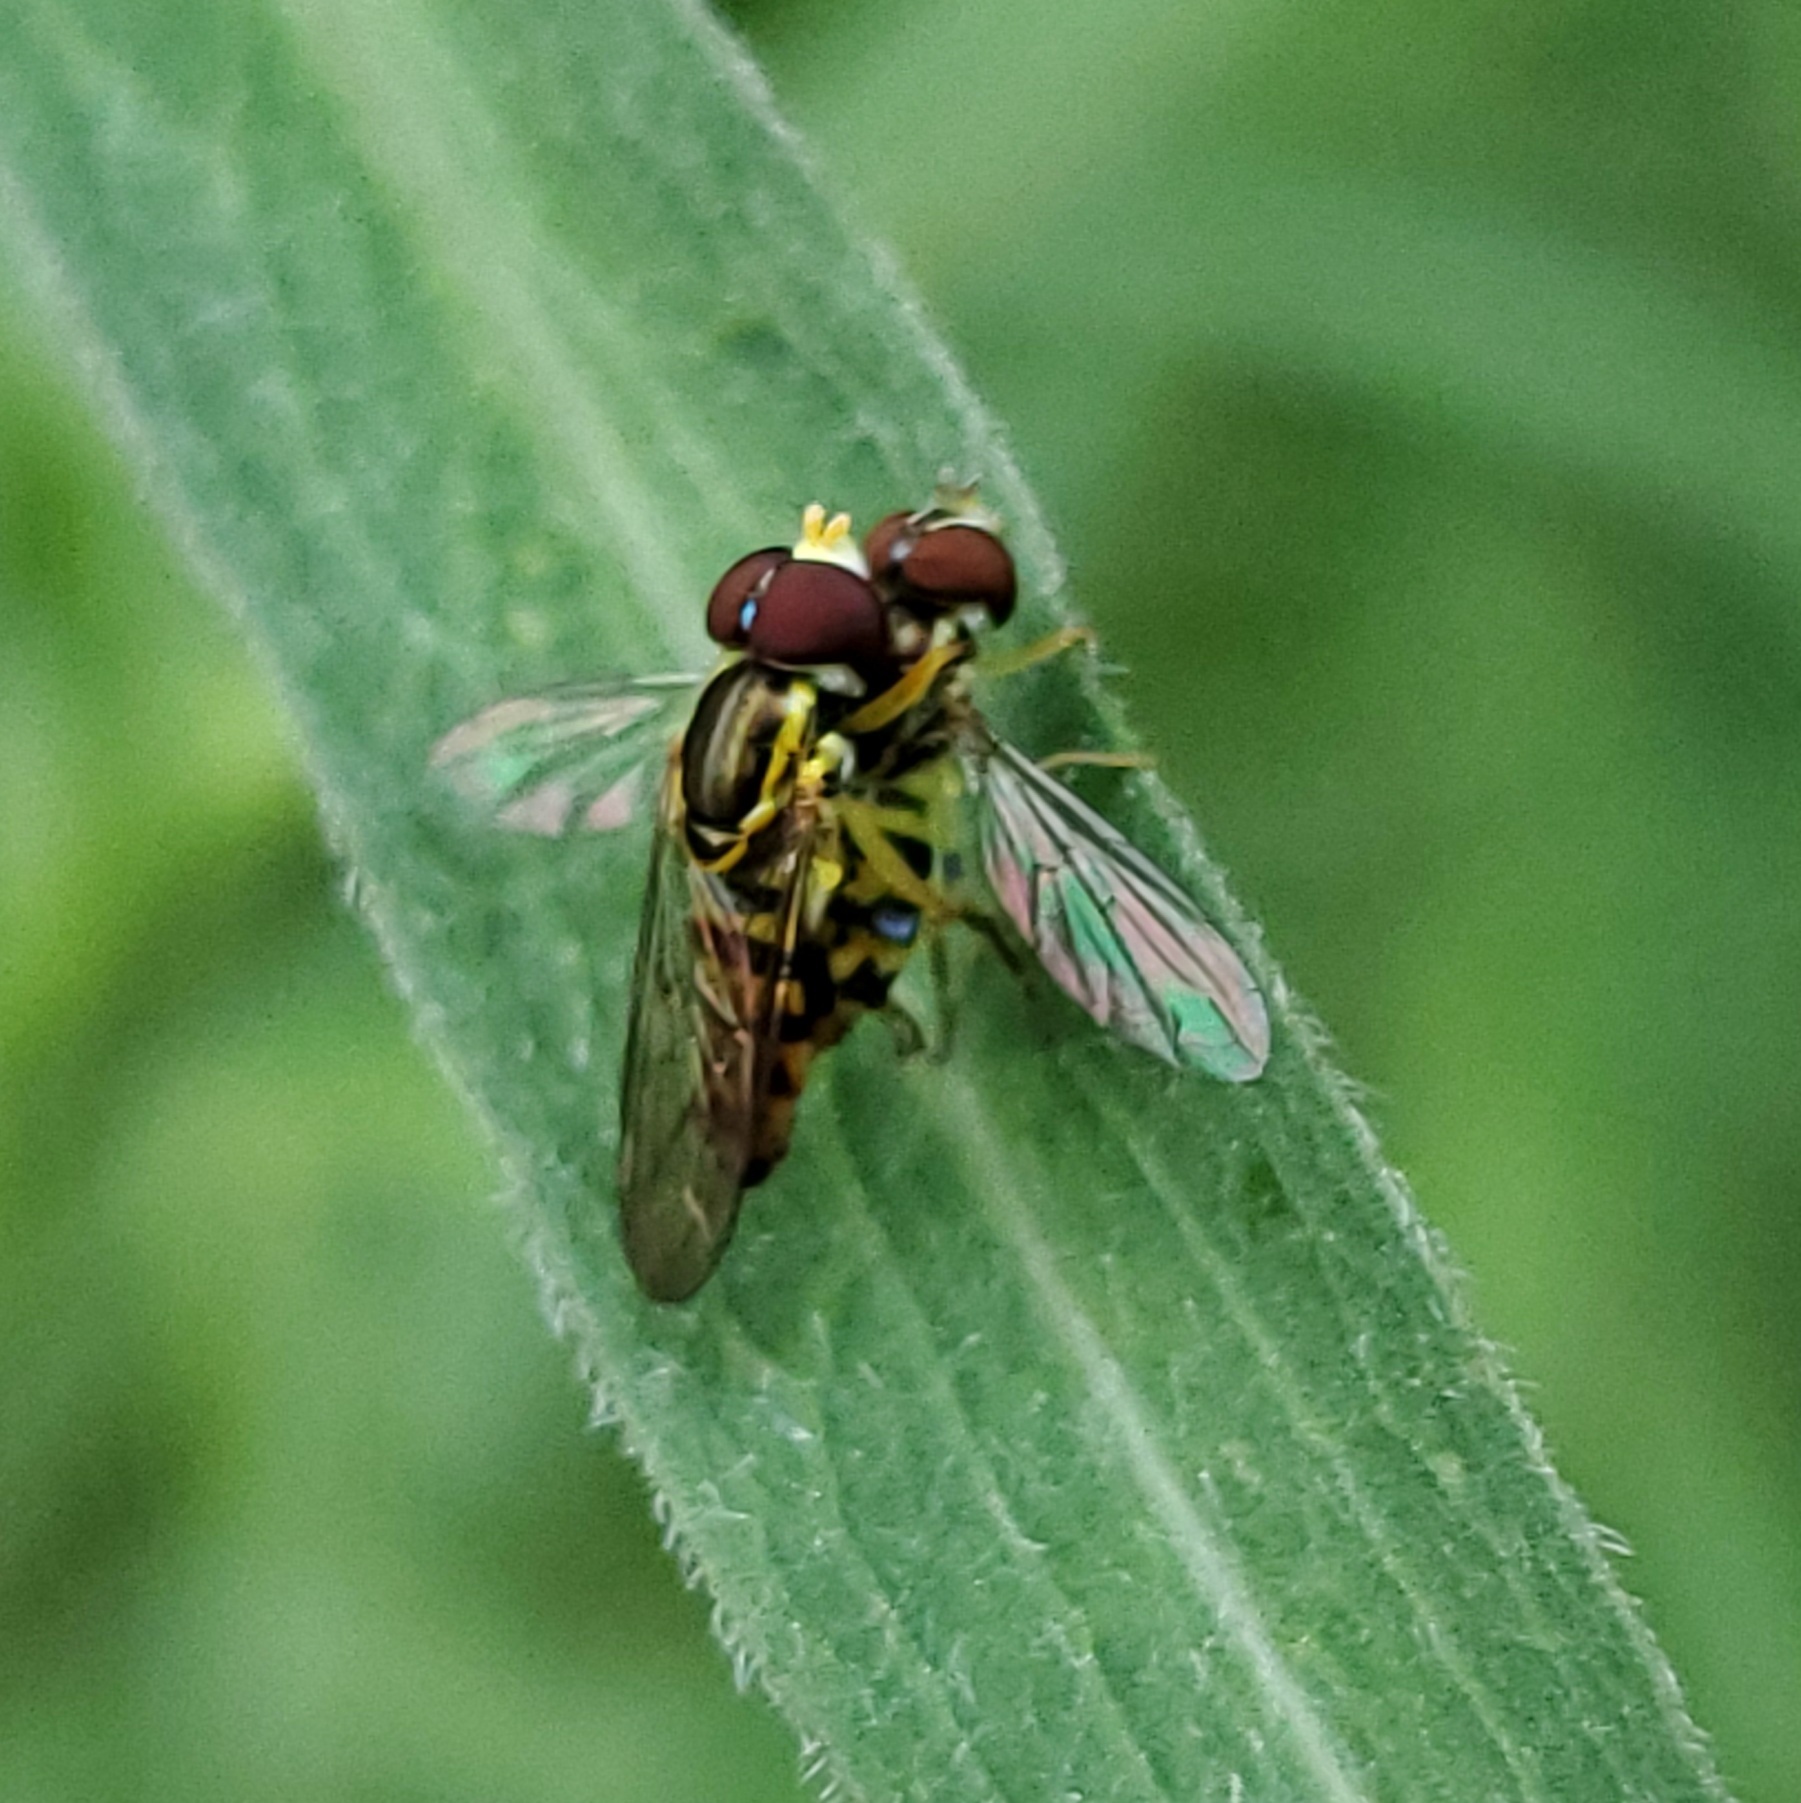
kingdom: Animalia
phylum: Arthropoda
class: Insecta
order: Diptera
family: Syrphidae
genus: Toxomerus
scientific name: Toxomerus geminatus
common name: Eastern calligrapher
